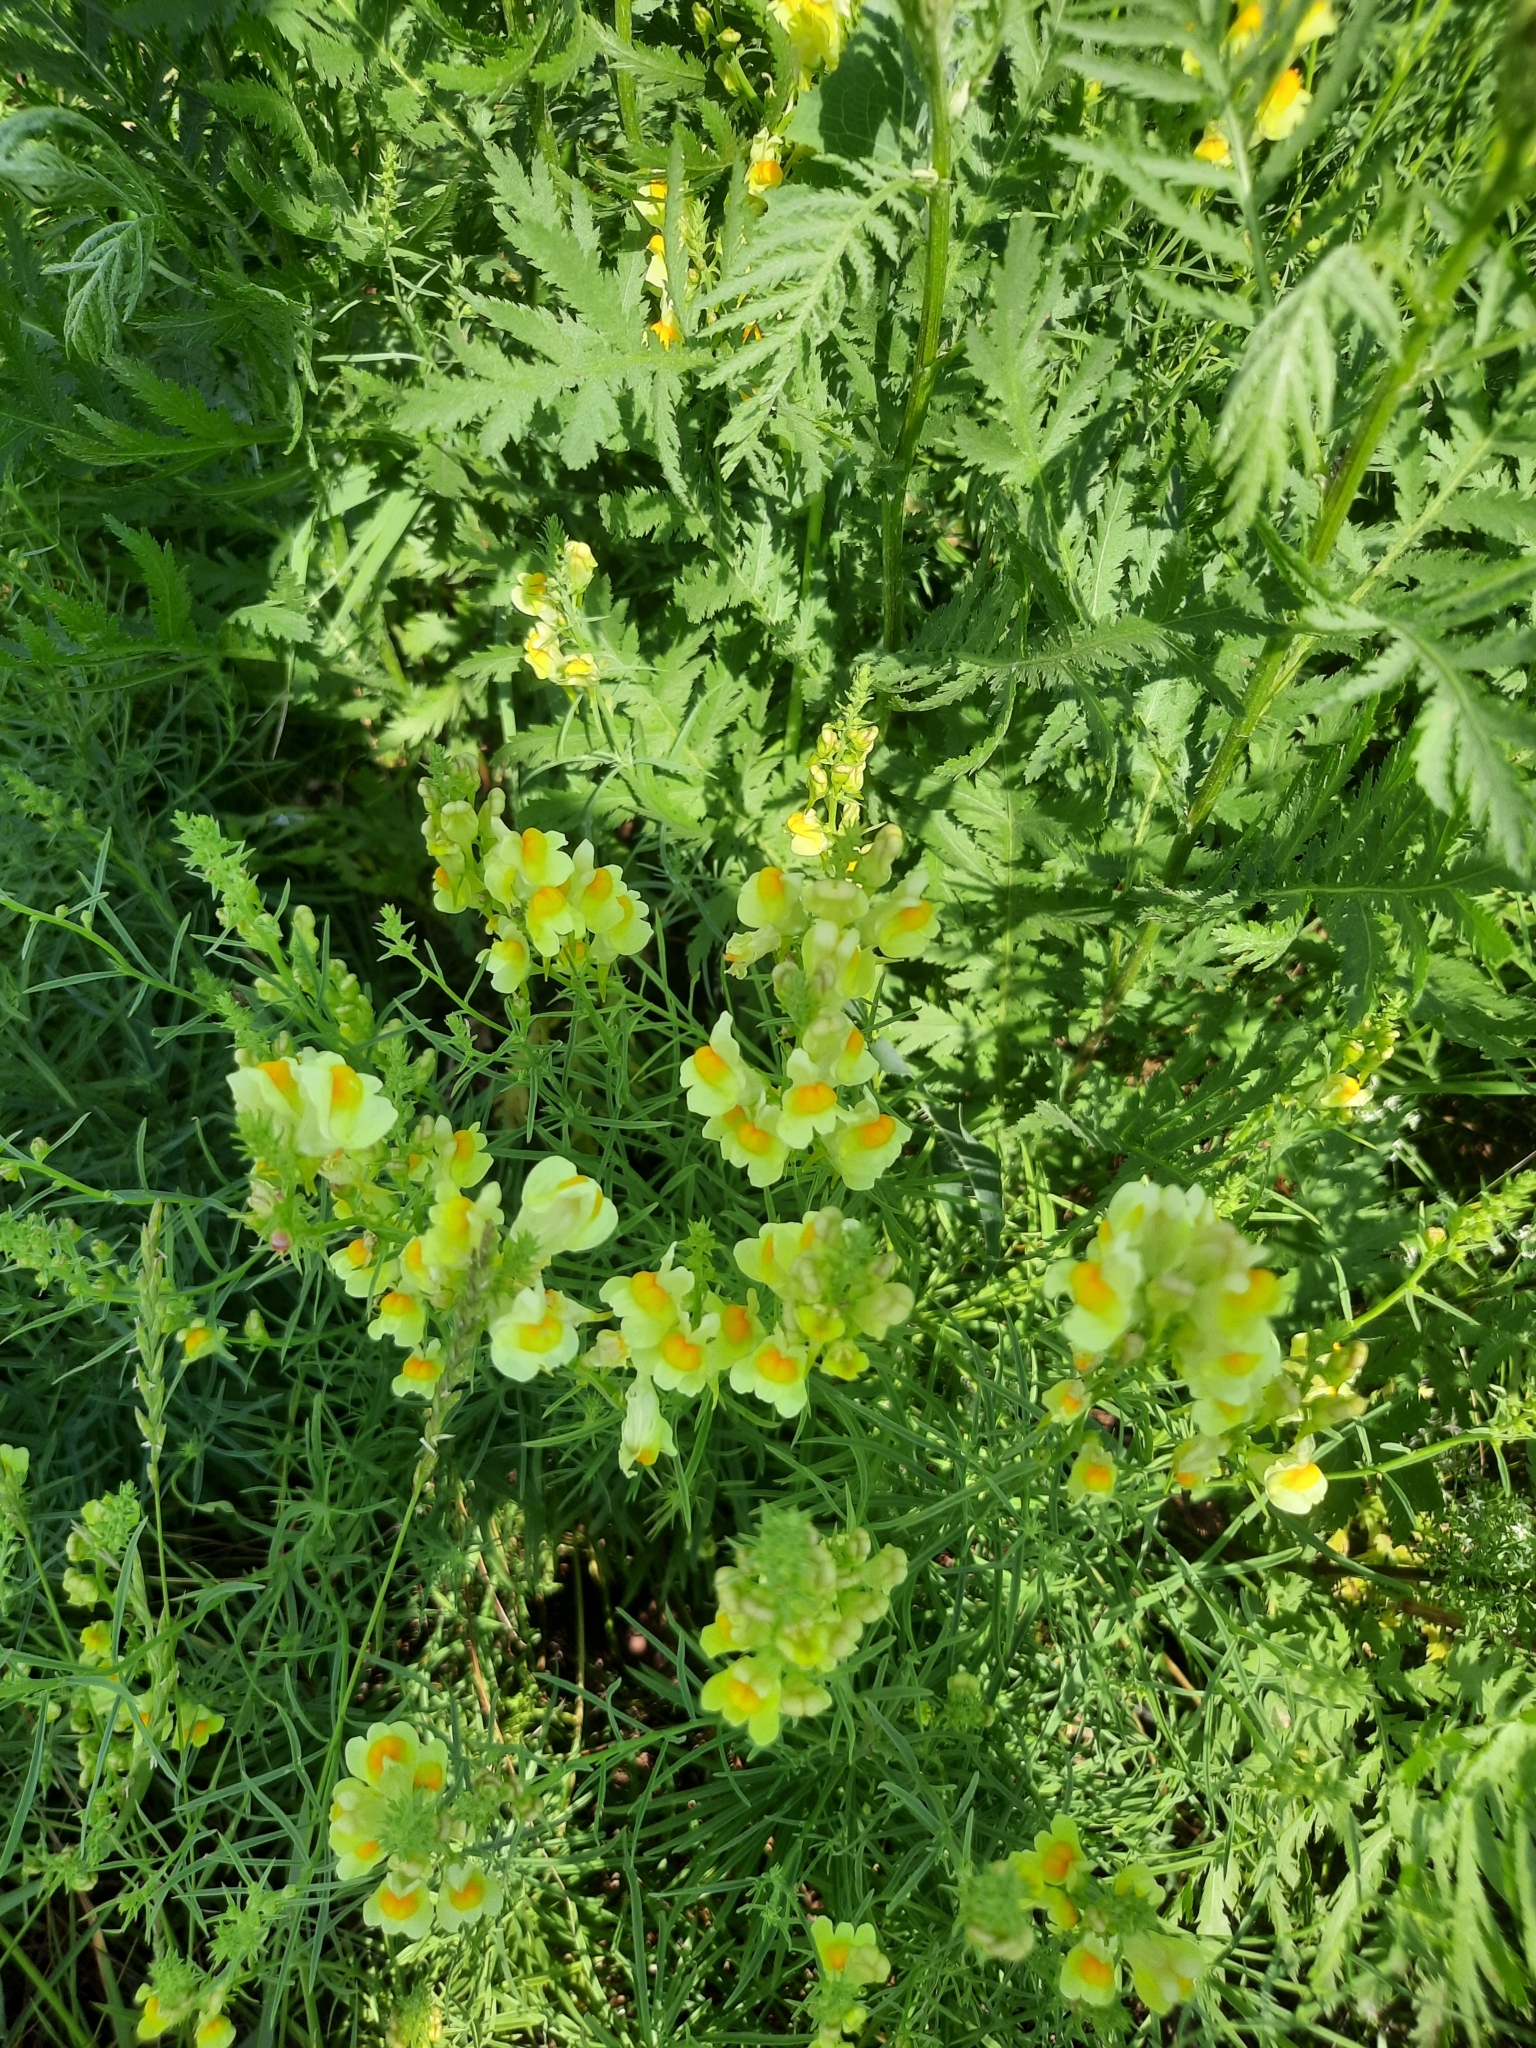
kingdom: Plantae
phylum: Tracheophyta
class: Magnoliopsida
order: Lamiales
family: Plantaginaceae
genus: Linaria
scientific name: Linaria vulgaris
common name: Butter and eggs
